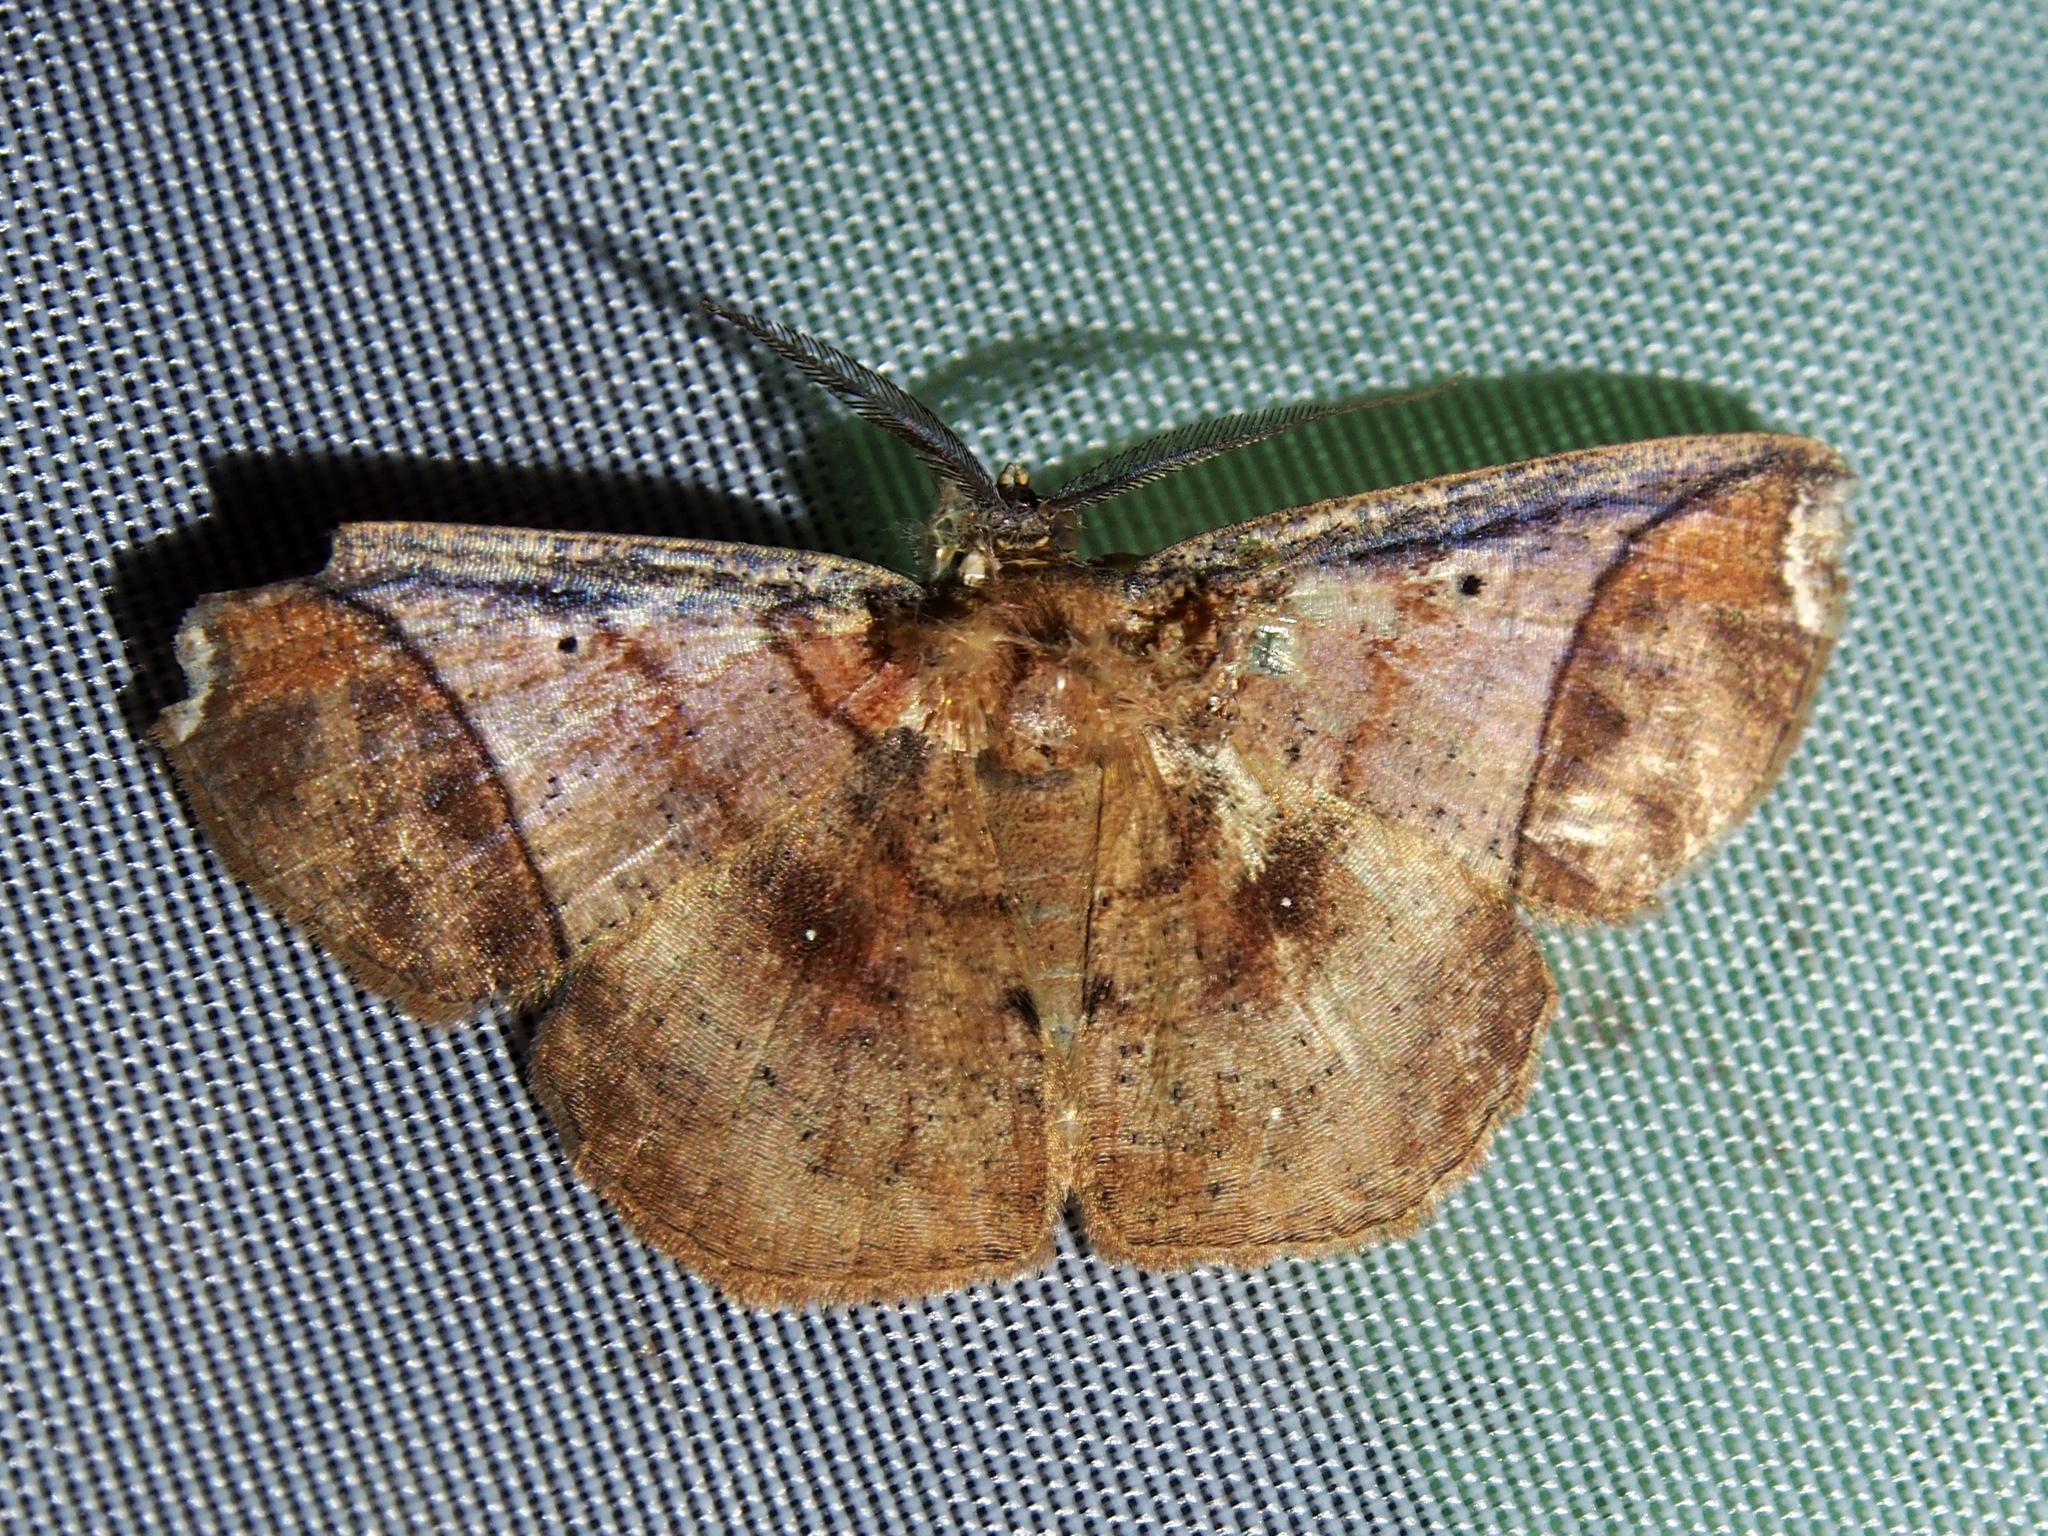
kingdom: Animalia
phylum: Arthropoda
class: Insecta
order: Lepidoptera
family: Geometridae
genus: Thysanopyga
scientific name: Thysanopyga carfinia
